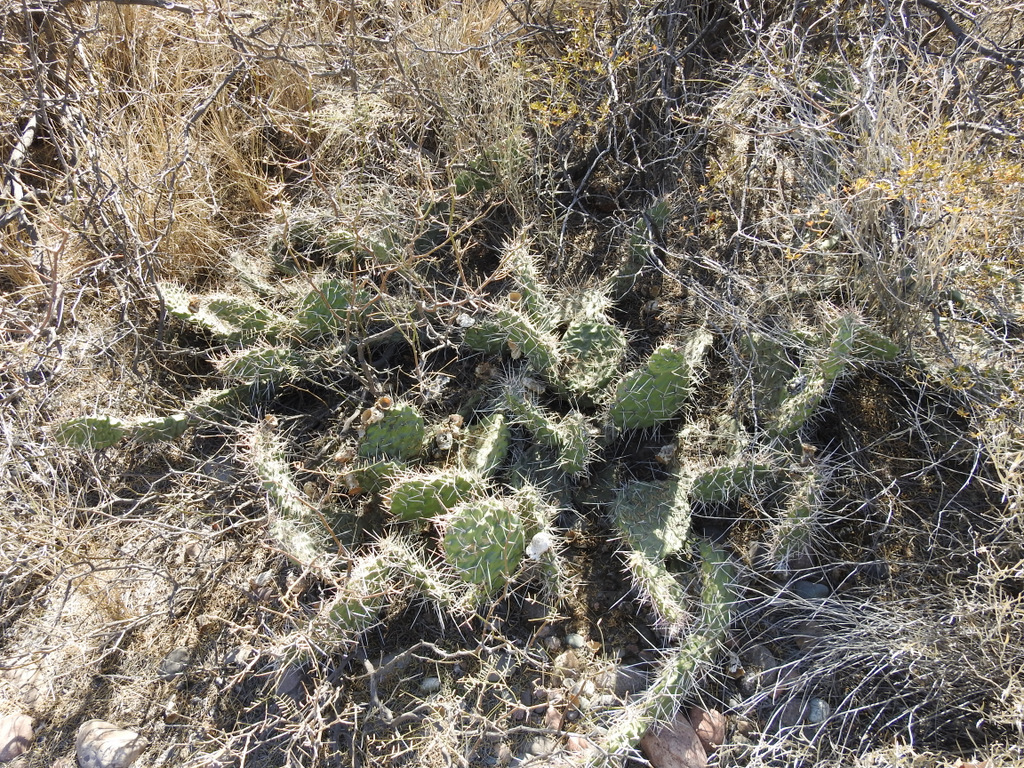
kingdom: Plantae
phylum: Tracheophyta
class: Magnoliopsida
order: Caryophyllales
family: Cactaceae
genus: Opuntia
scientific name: Opuntia sulphurea
